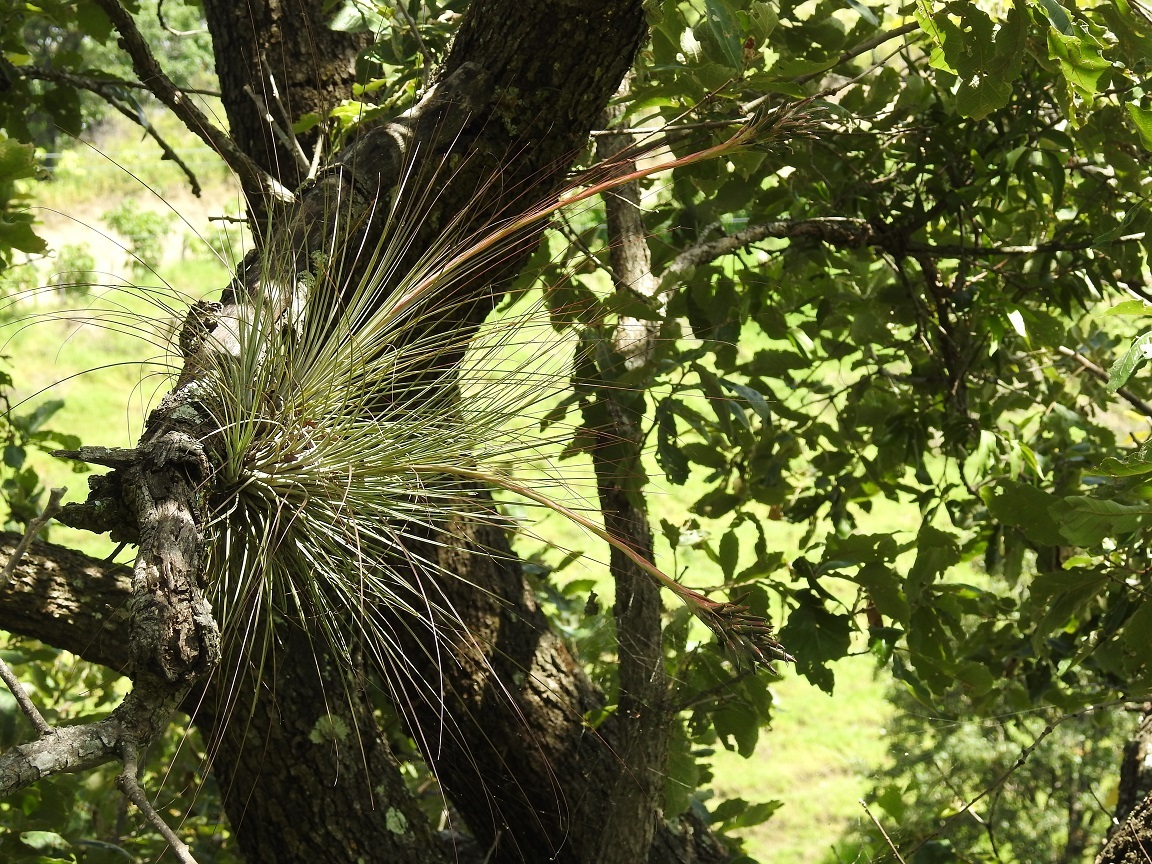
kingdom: Plantae
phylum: Tracheophyta
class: Liliopsida
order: Poales
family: Bromeliaceae
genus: Tillandsia
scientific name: Tillandsia juncea
